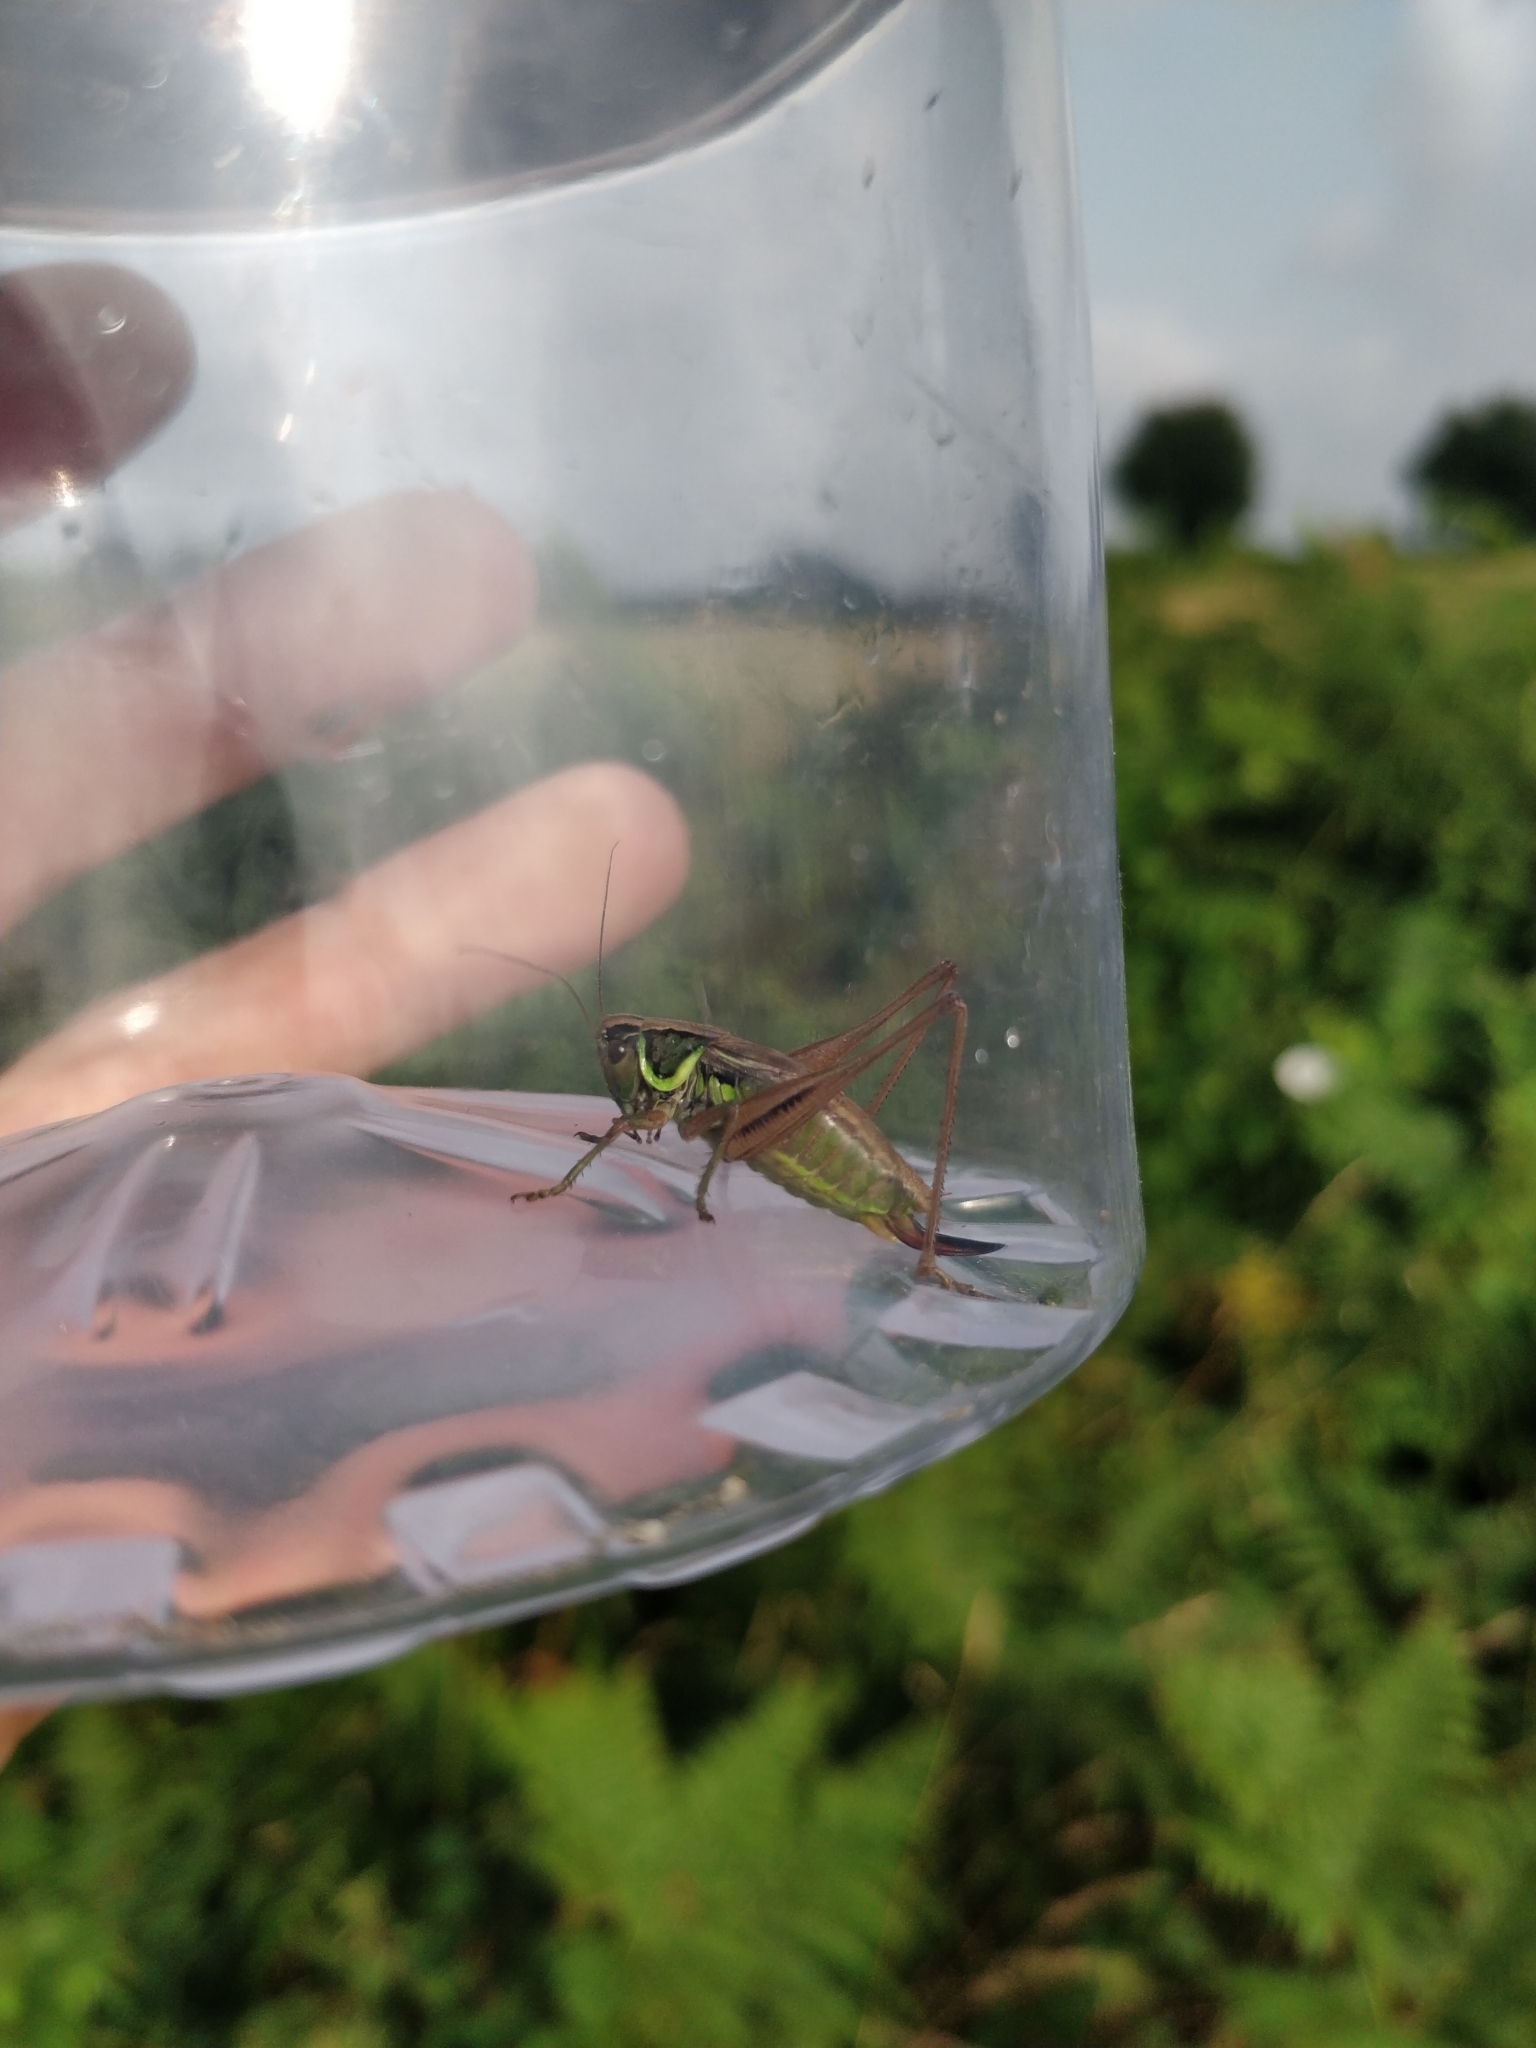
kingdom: Animalia
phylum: Arthropoda
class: Insecta
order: Orthoptera
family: Tettigoniidae
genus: Roeseliana
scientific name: Roeseliana roeselii
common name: Roesel's bush cricket
